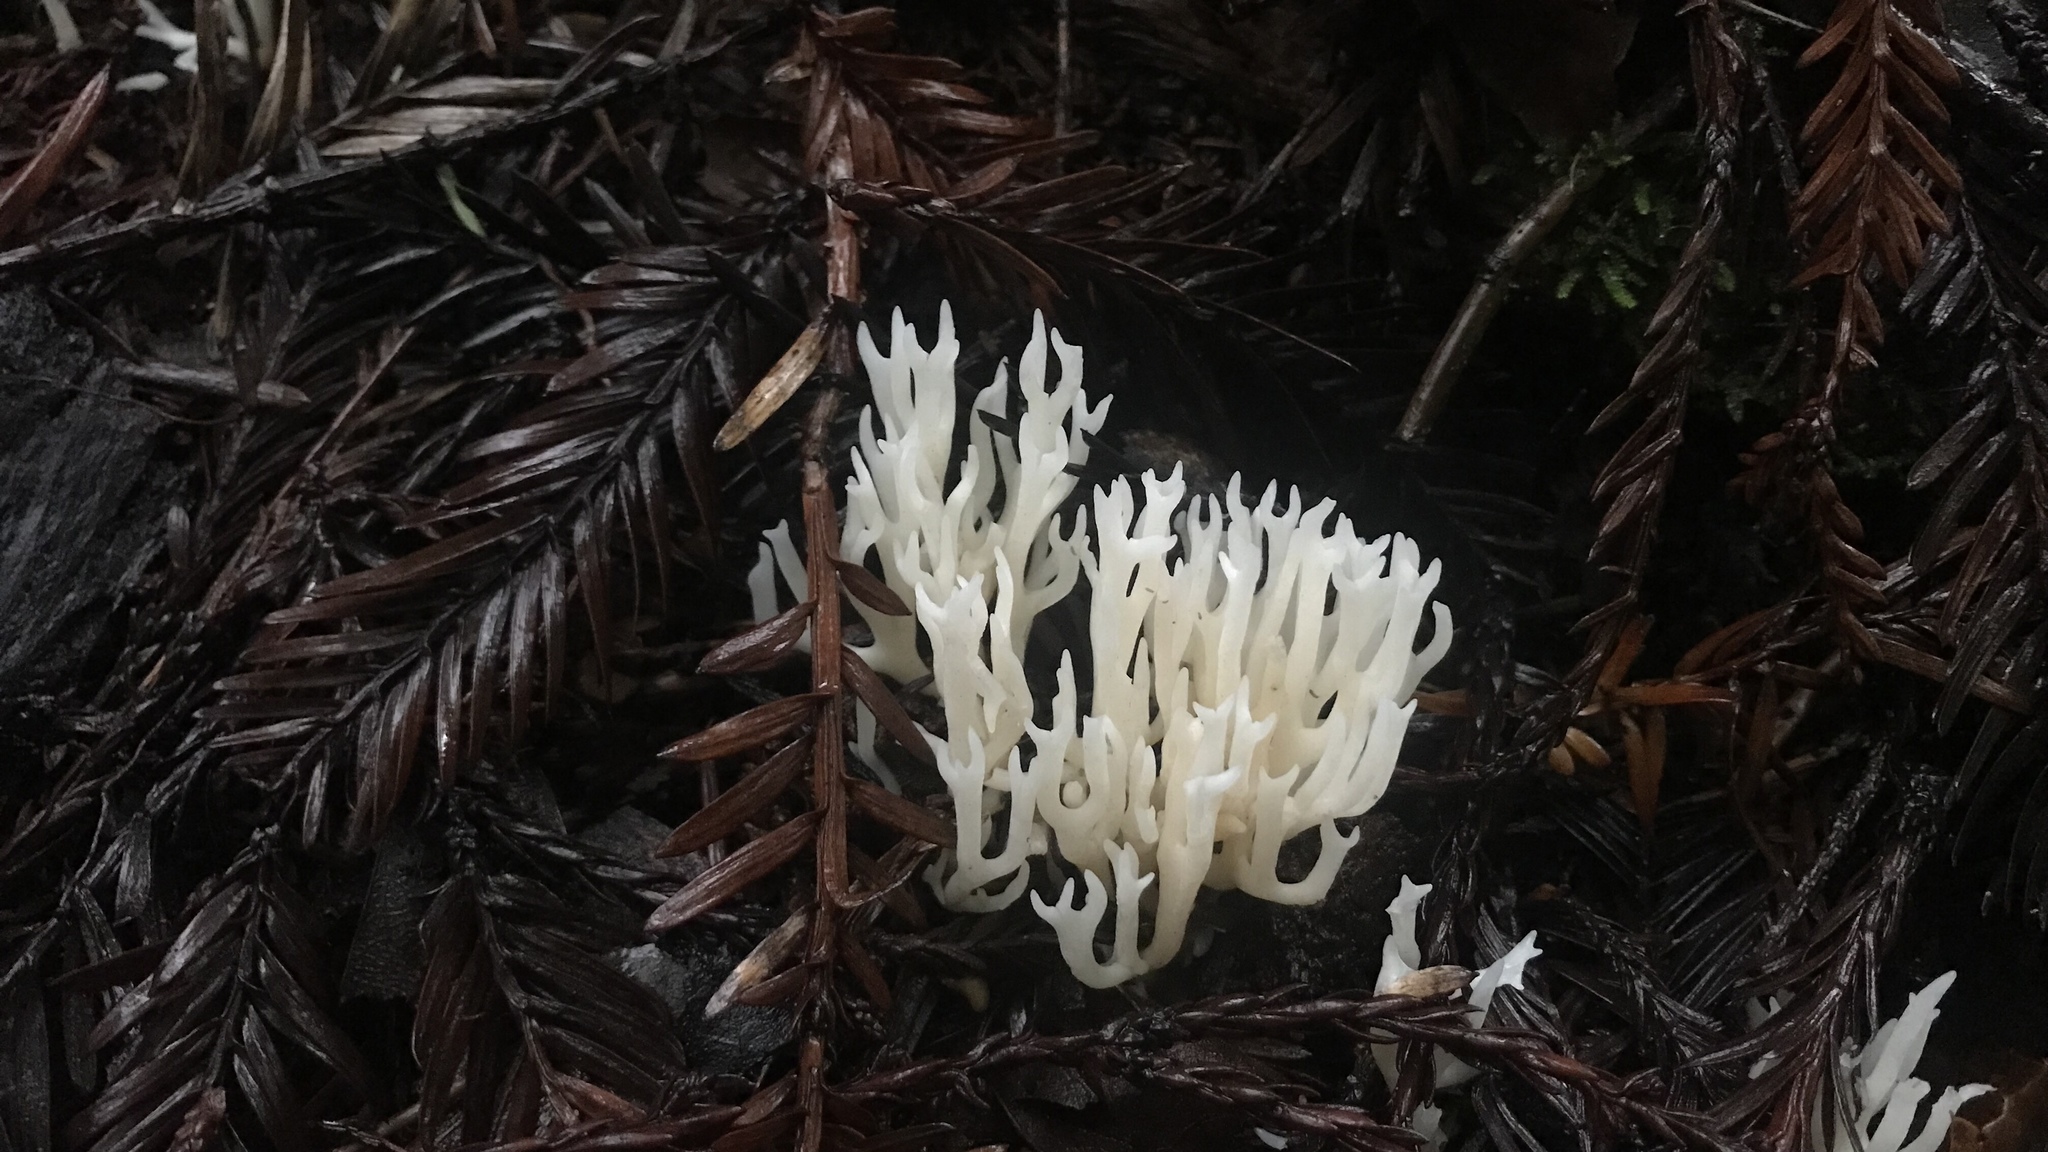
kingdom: Fungi
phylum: Basidiomycota
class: Agaricomycetes
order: Agaricales
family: Clavariaceae
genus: Ramariopsis
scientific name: Ramariopsis kunzei
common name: Ivory coral
